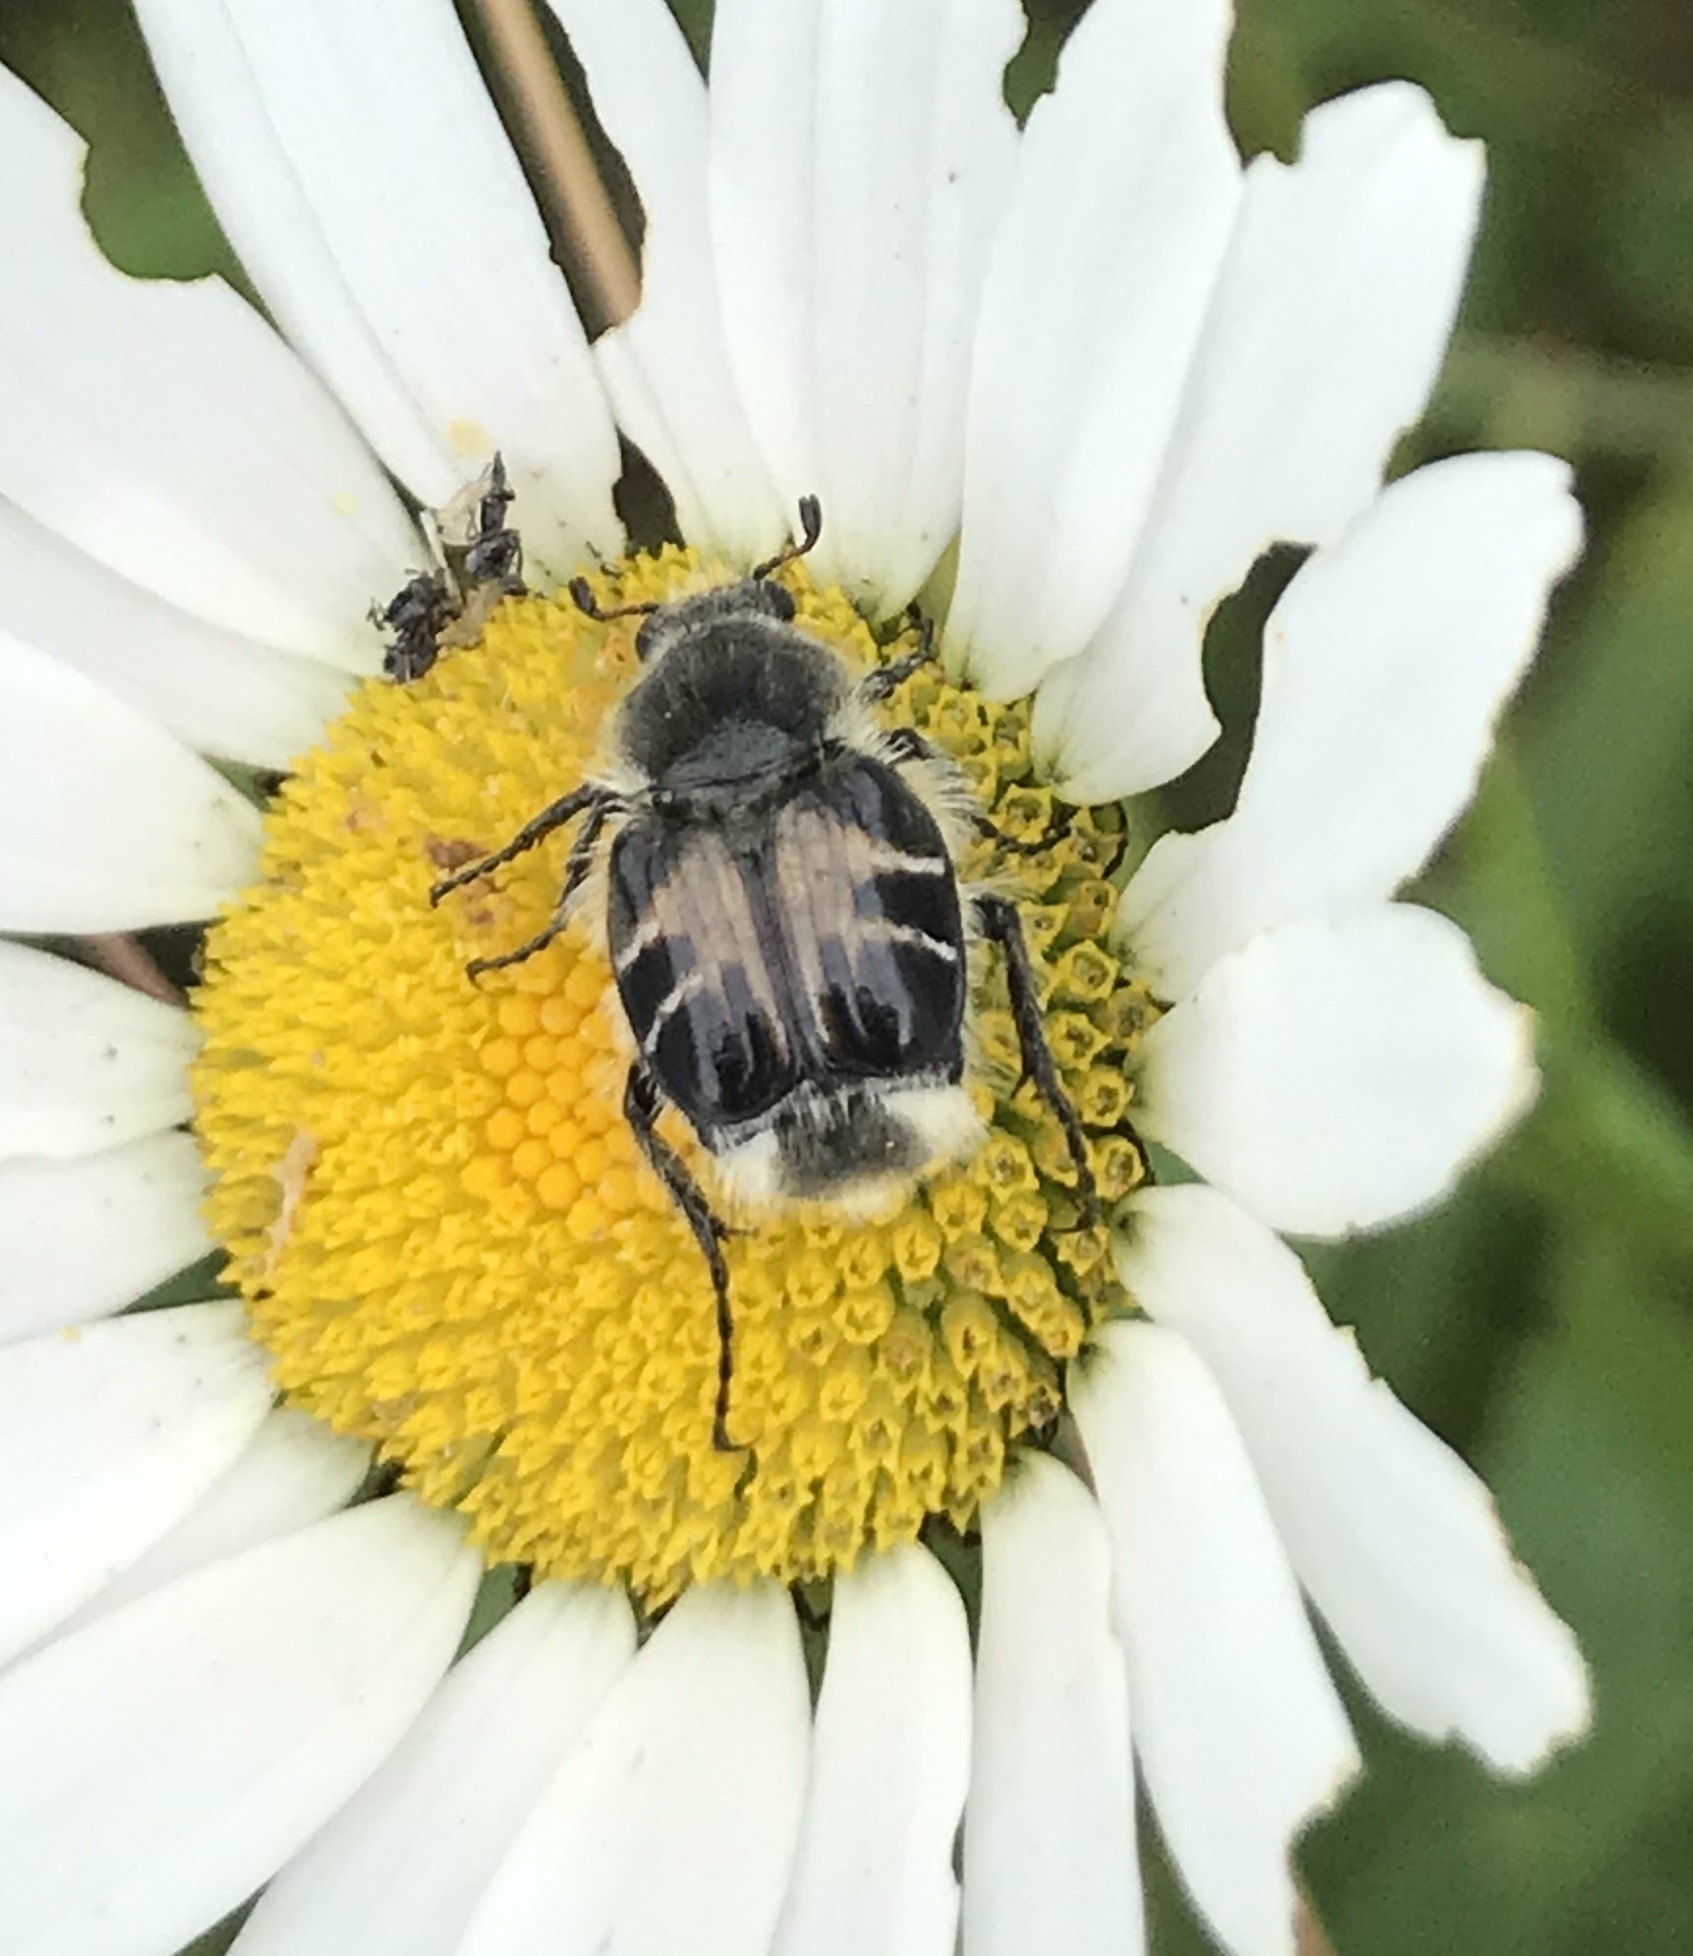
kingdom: Animalia
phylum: Arthropoda
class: Insecta
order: Coleoptera
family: Scarabaeidae
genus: Trichiotinus
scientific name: Trichiotinus assimilis
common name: Bee-mimic beetle
